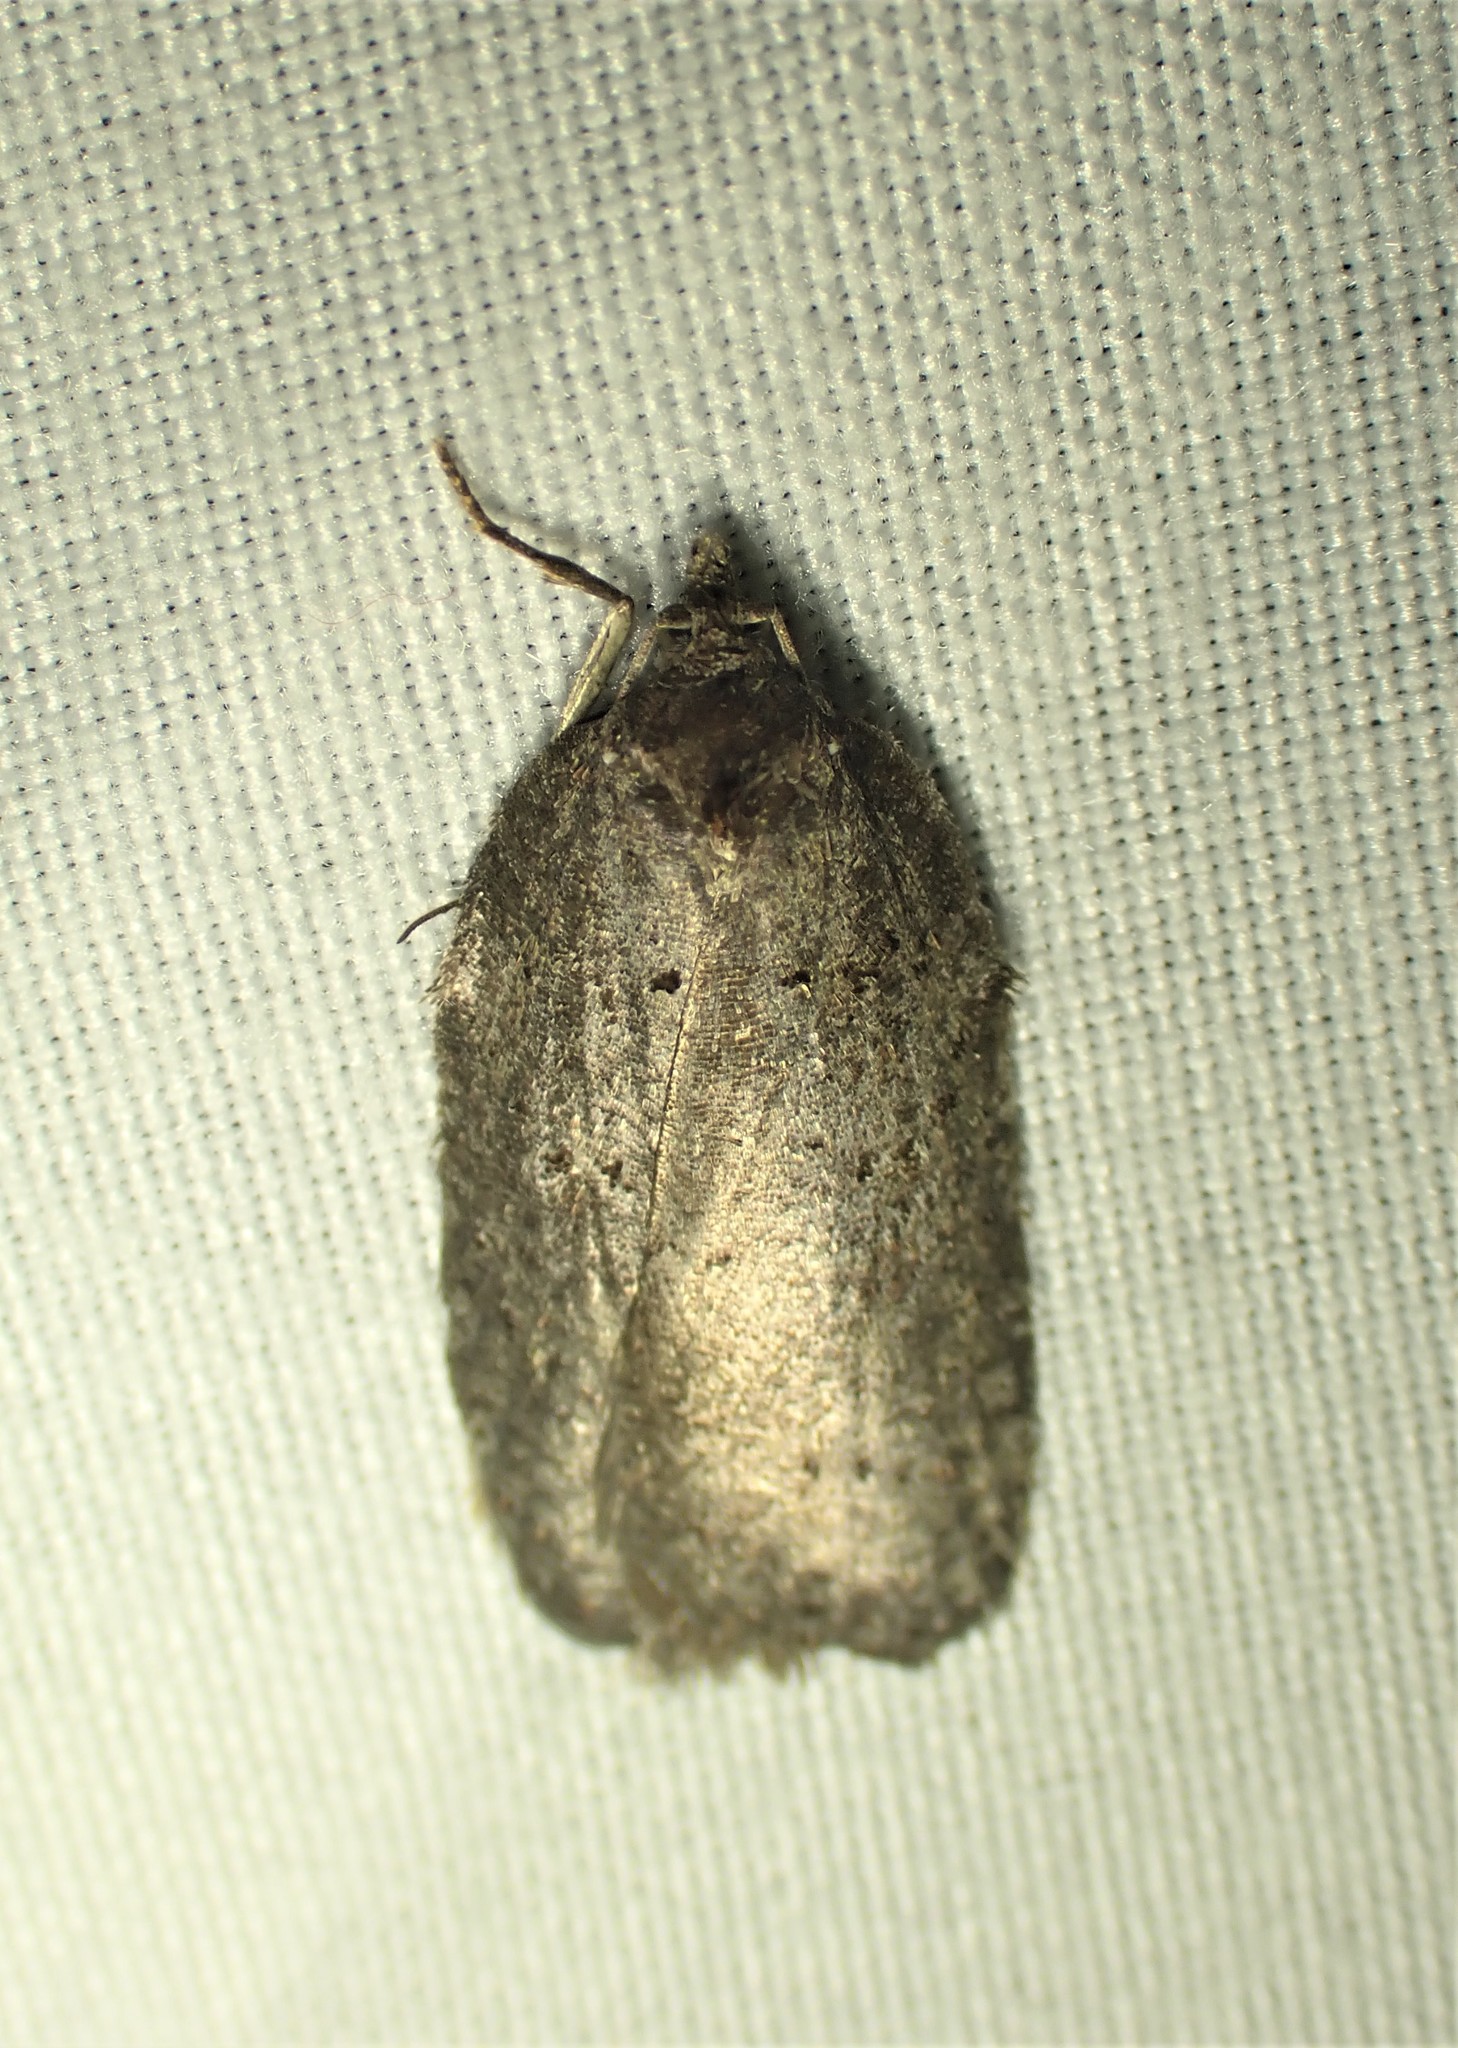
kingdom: Animalia
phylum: Arthropoda
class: Insecta
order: Lepidoptera
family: Tortricidae
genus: Acleris
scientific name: Acleris caliginosana
